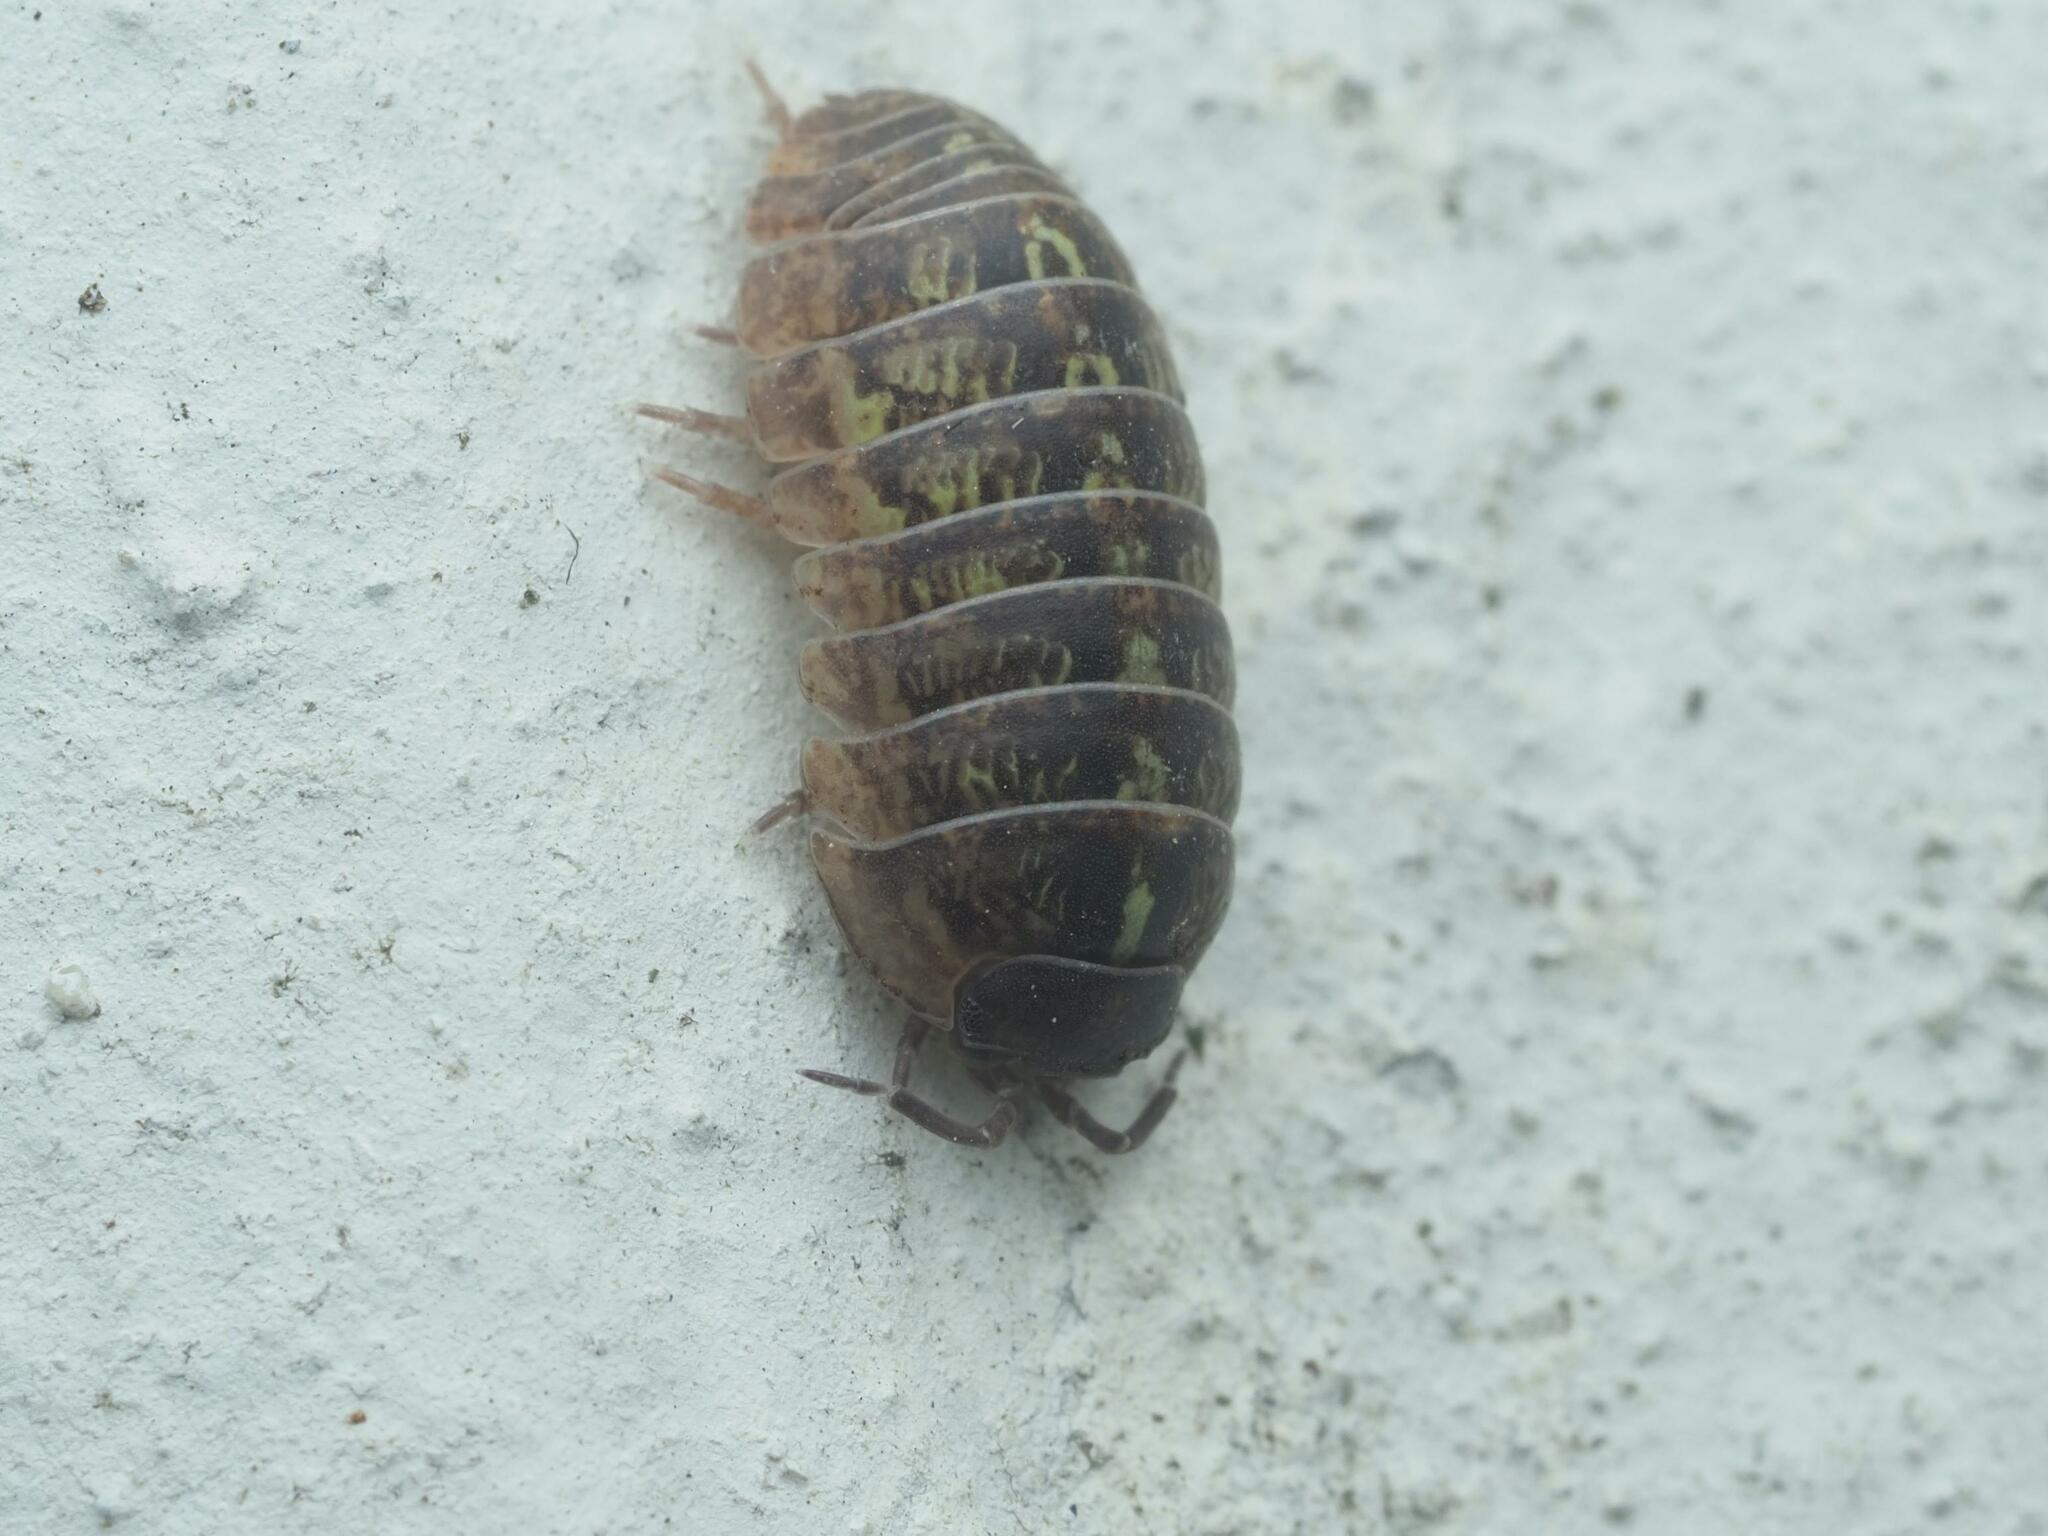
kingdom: Animalia
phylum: Arthropoda
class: Malacostraca
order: Isopoda
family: Armadillidiidae
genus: Armadillidium
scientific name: Armadillidium vulgare
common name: Common pill woodlouse
